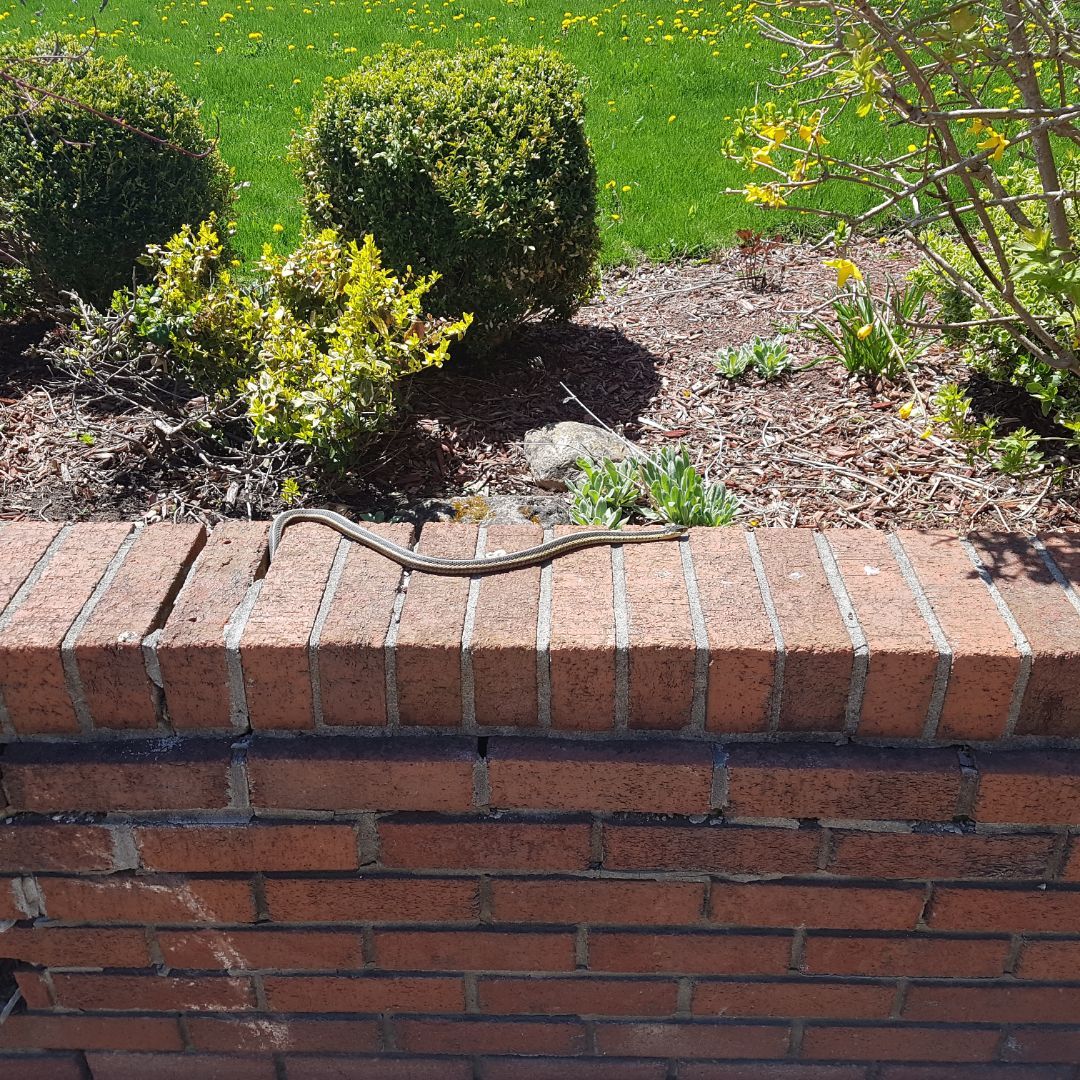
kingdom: Animalia
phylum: Chordata
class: Squamata
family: Colubridae
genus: Thamnophis
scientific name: Thamnophis sirtalis
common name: Common garter snake
